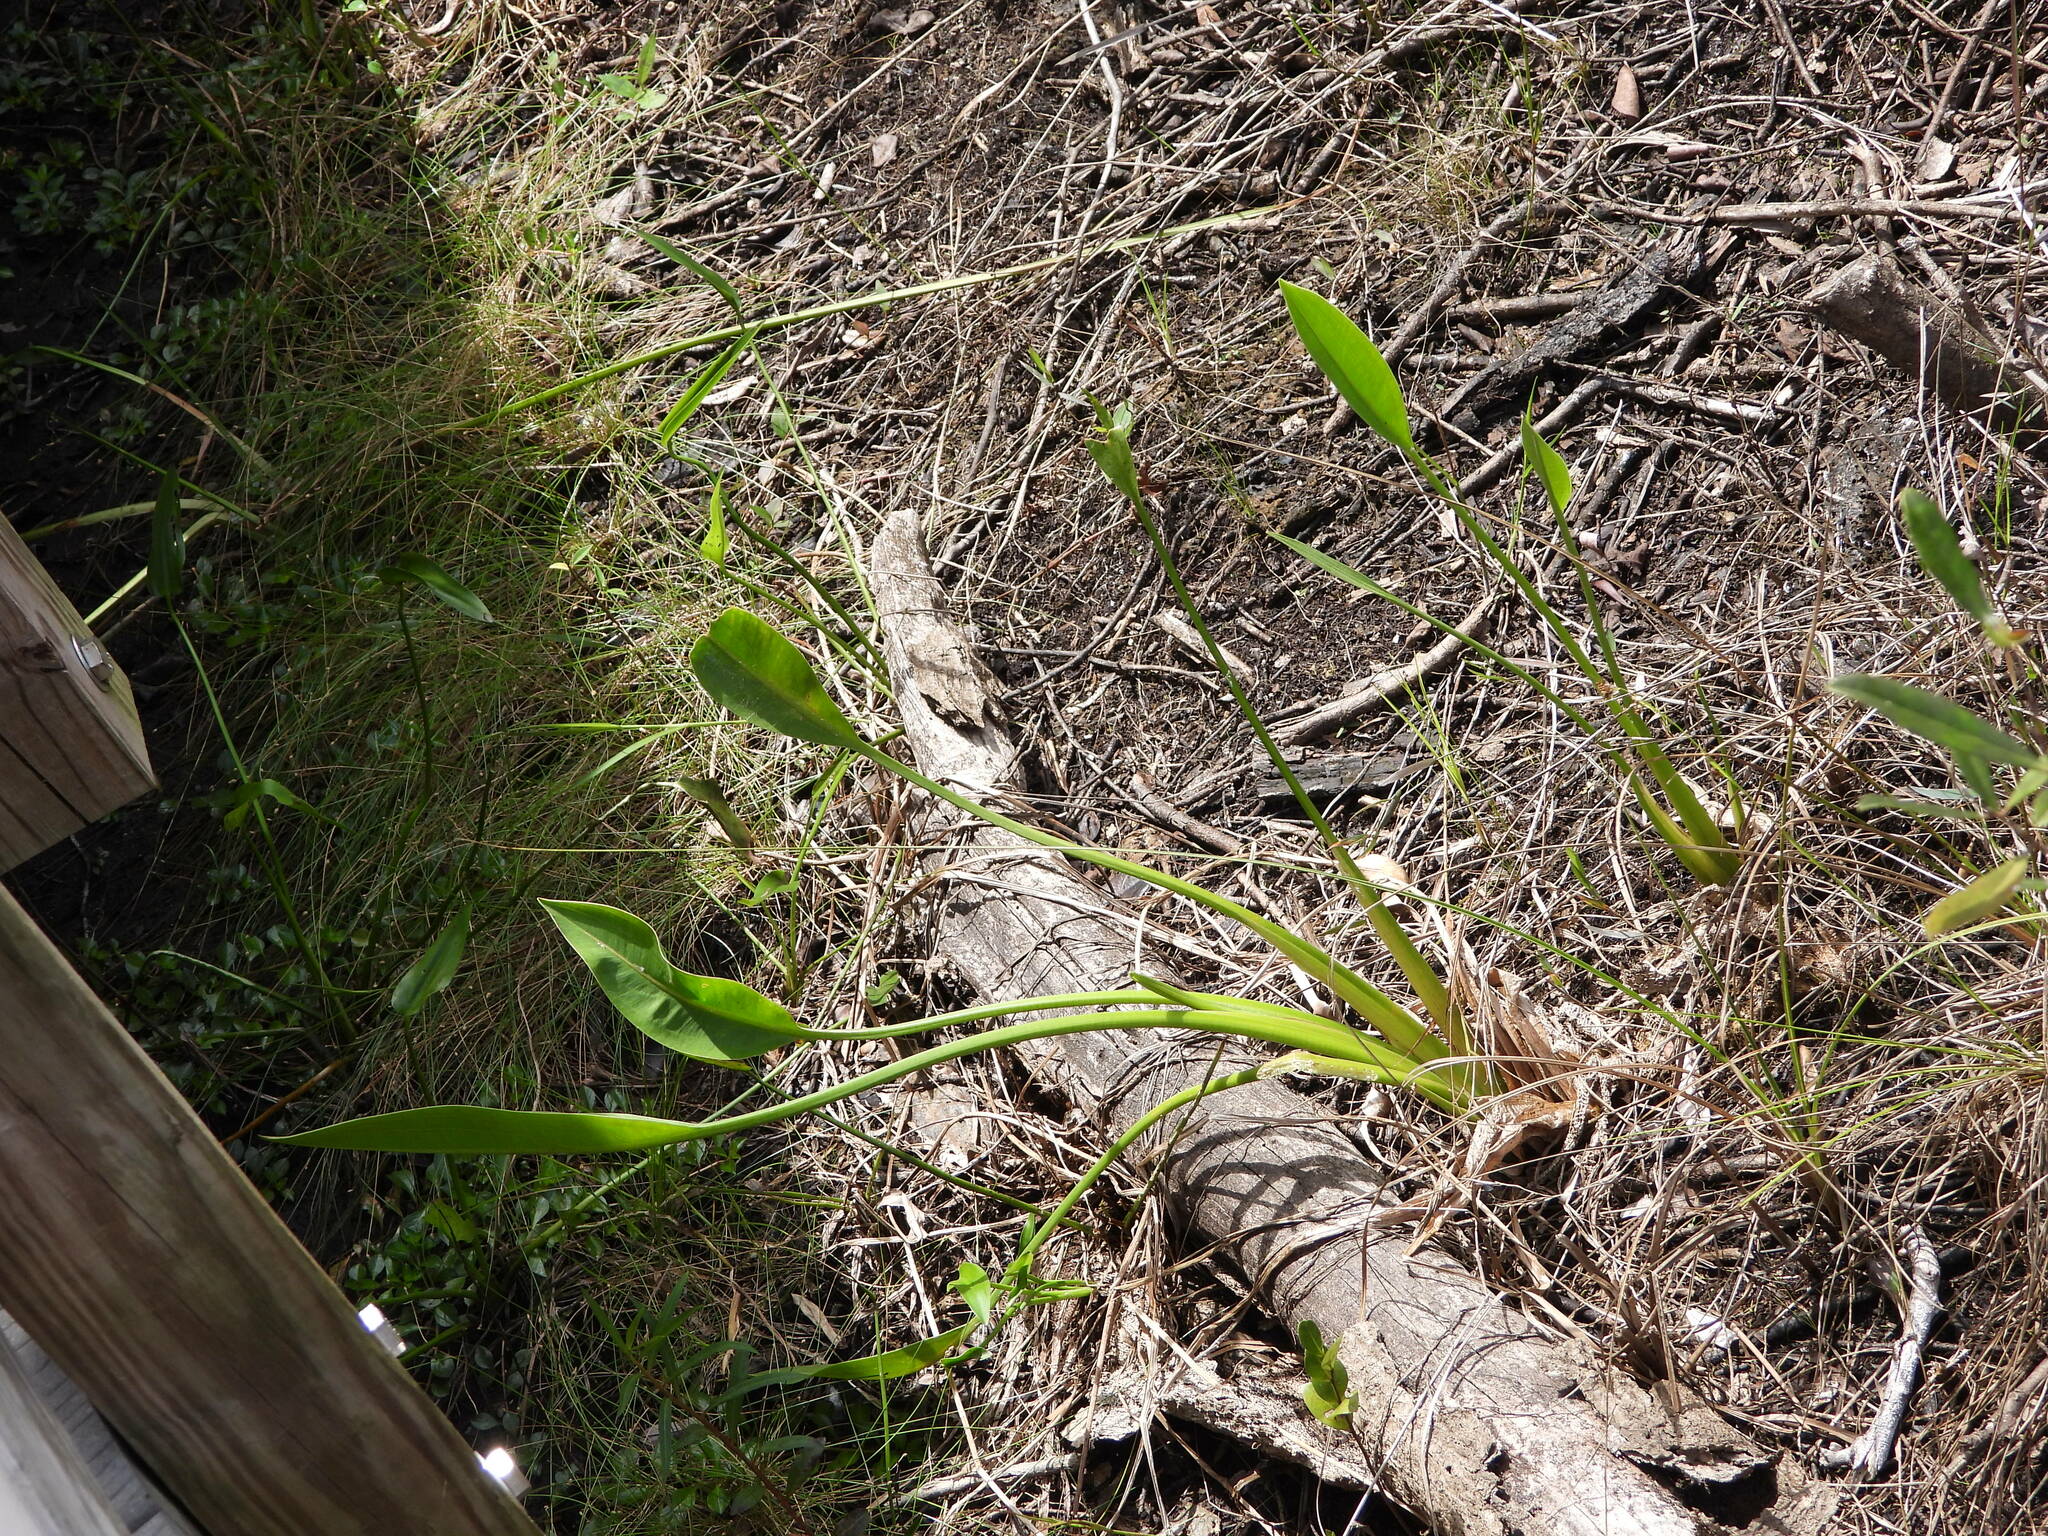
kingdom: Plantae
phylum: Tracheophyta
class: Liliopsida
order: Alismatales
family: Alismataceae
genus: Sagittaria
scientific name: Sagittaria lancifolia
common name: Lance-leaf arrowhead
